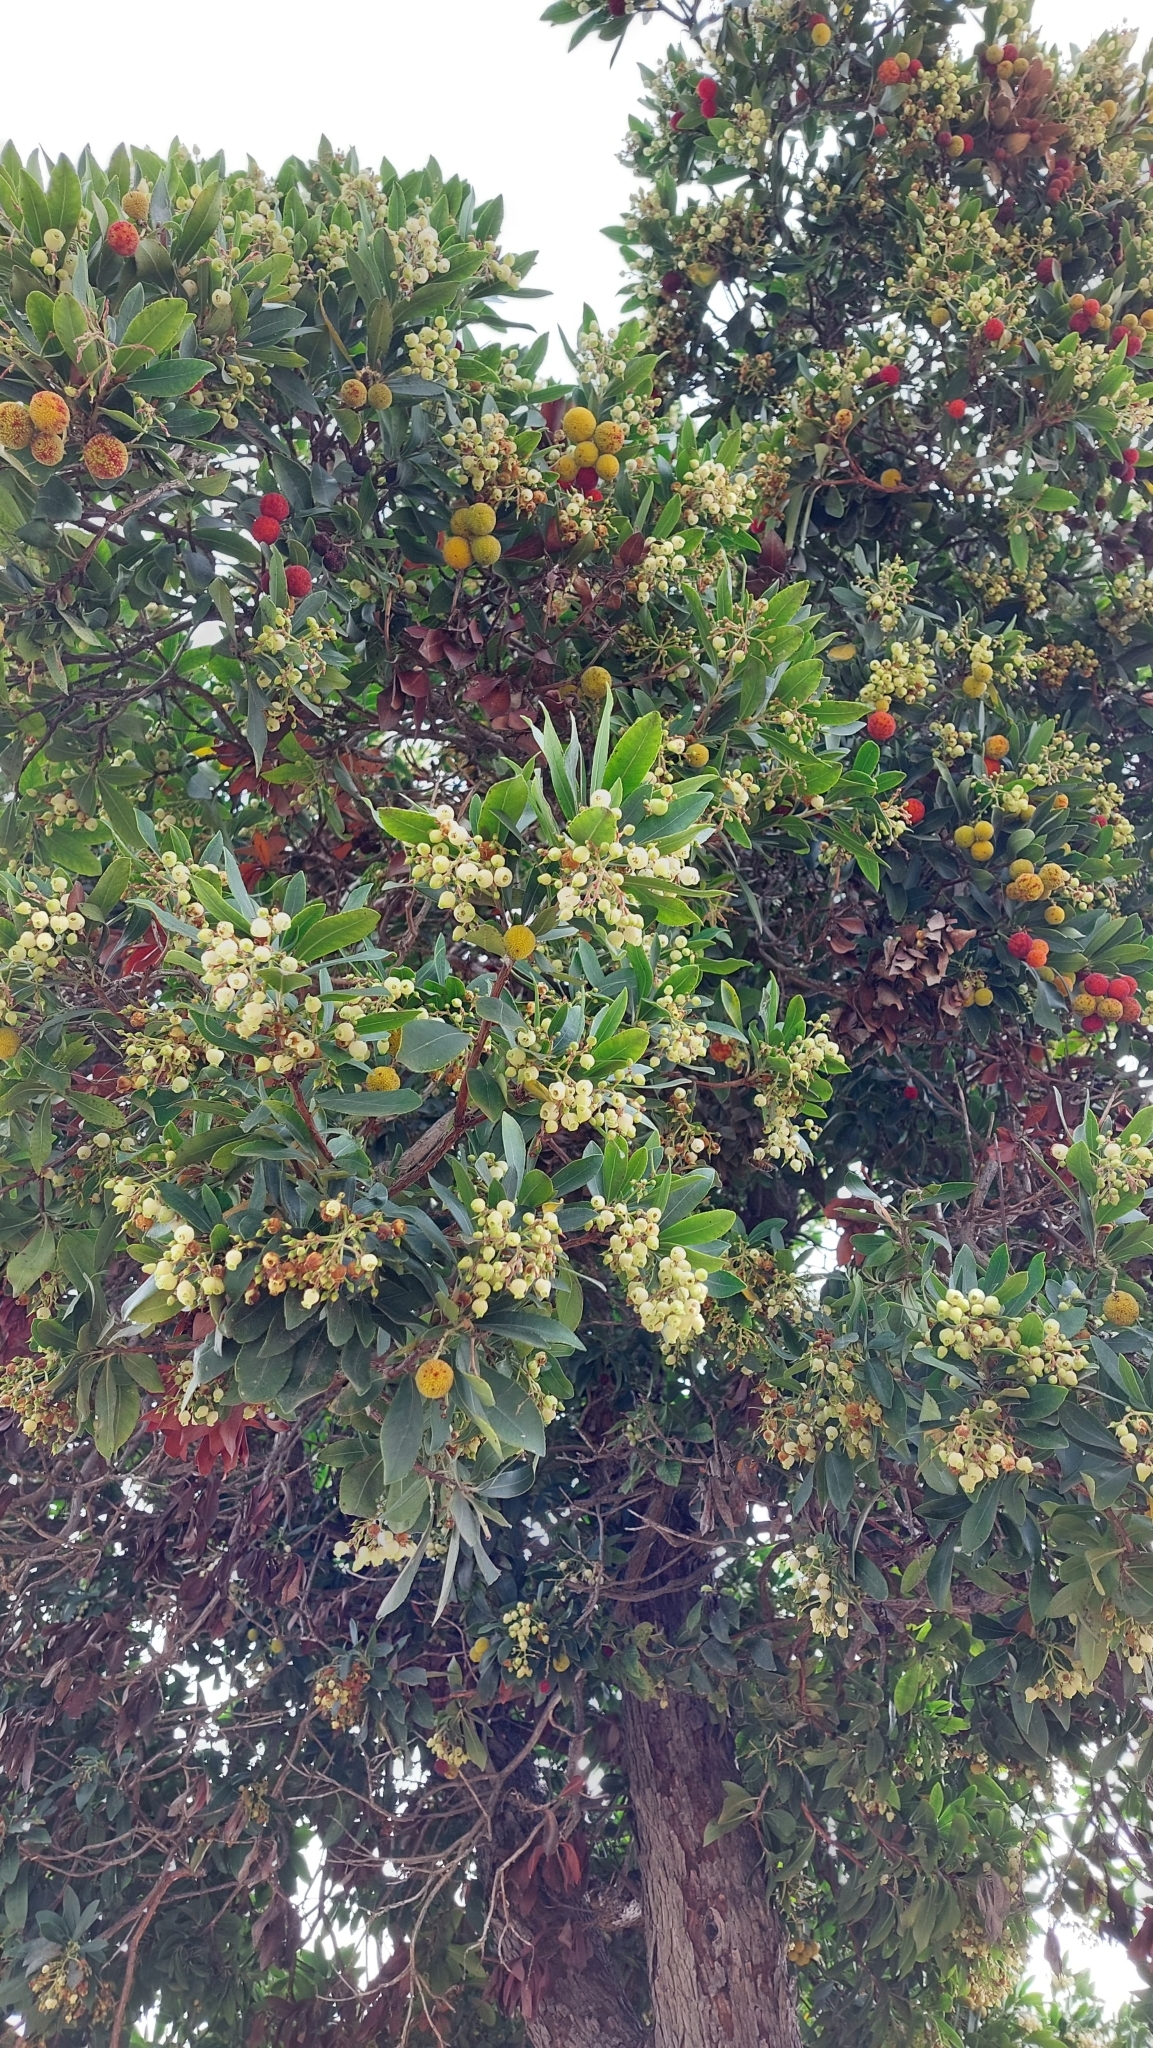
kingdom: Plantae
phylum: Tracheophyta
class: Magnoliopsida
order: Ericales
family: Ericaceae
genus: Arbutus
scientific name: Arbutus unedo
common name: Strawberry-tree
